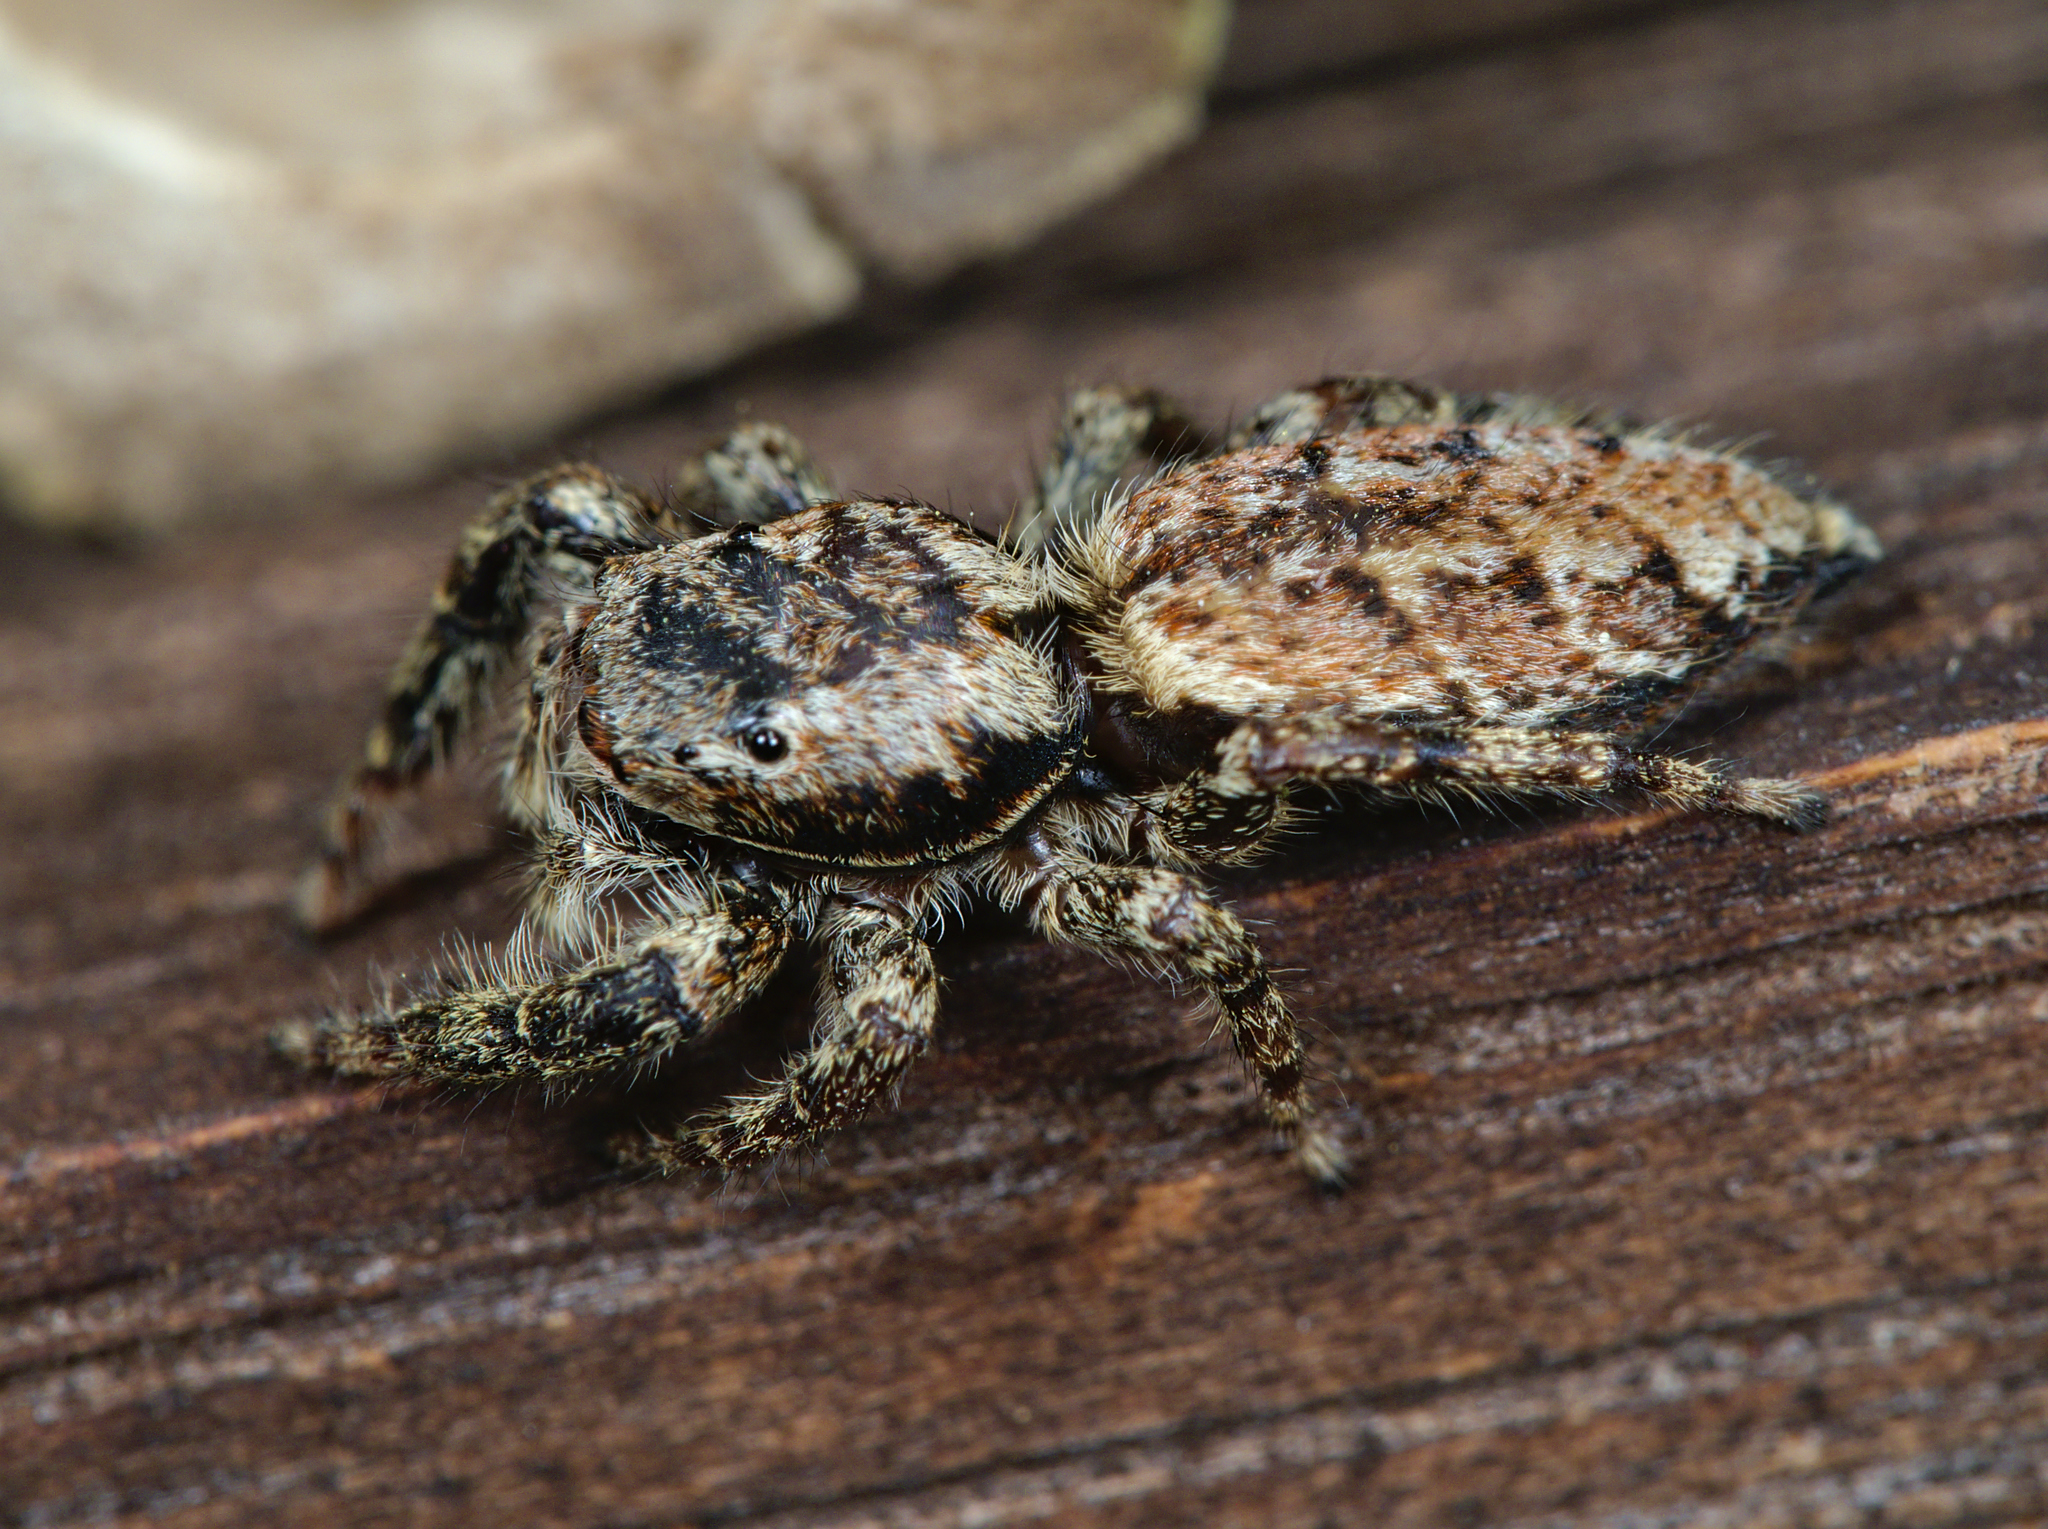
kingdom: Animalia
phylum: Arthropoda
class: Arachnida
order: Araneae
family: Salticidae
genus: Marpissa
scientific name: Marpissa muscosa
